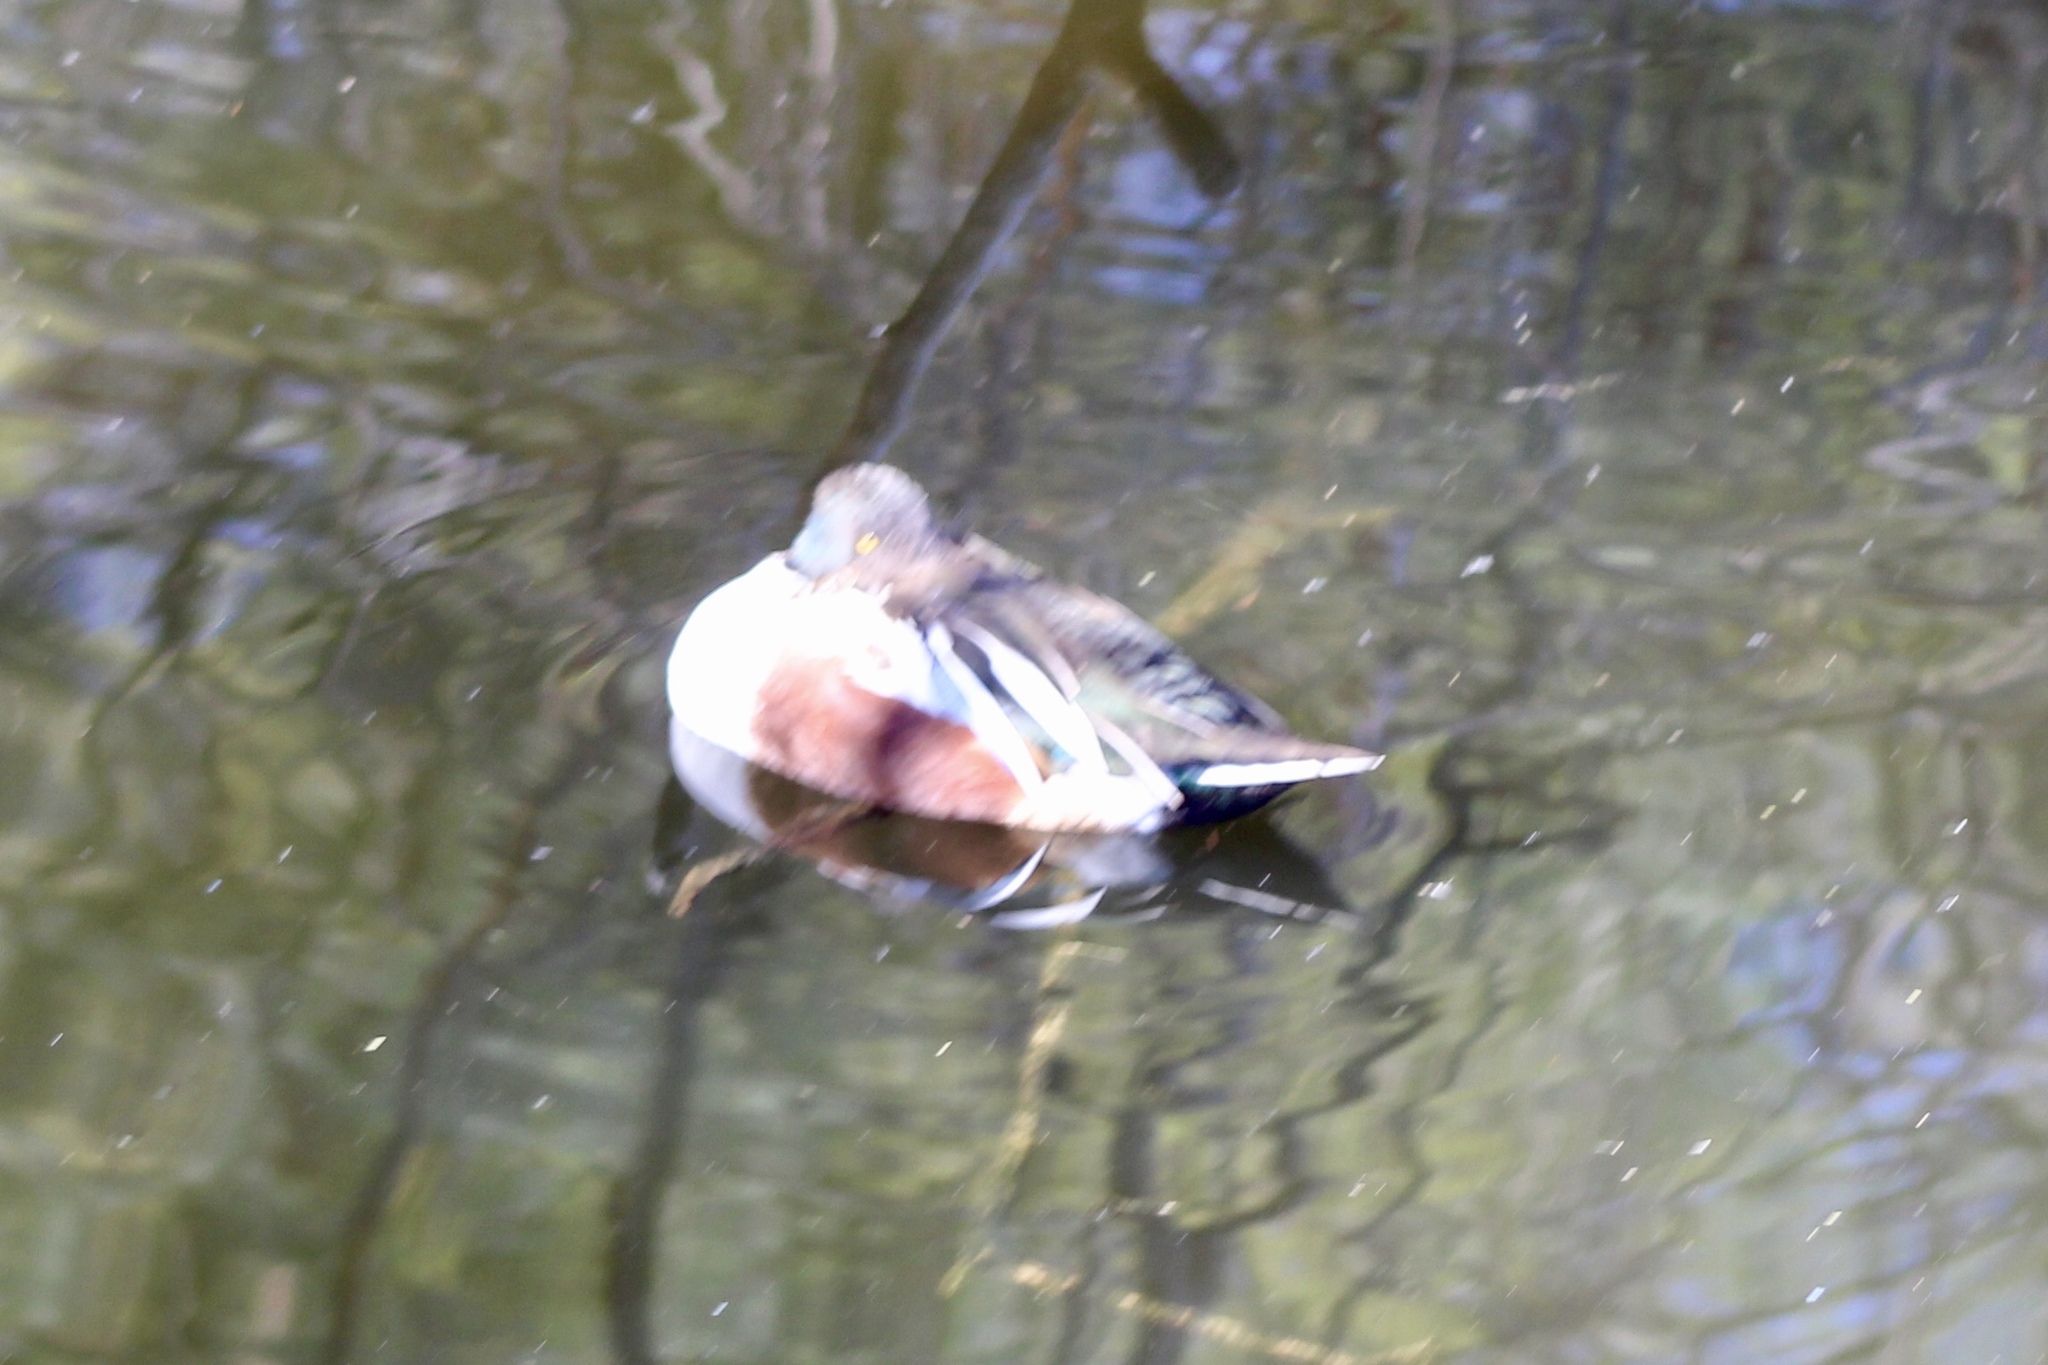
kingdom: Animalia
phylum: Chordata
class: Aves
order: Anseriformes
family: Anatidae
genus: Spatula
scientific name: Spatula clypeata
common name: Northern shoveler
